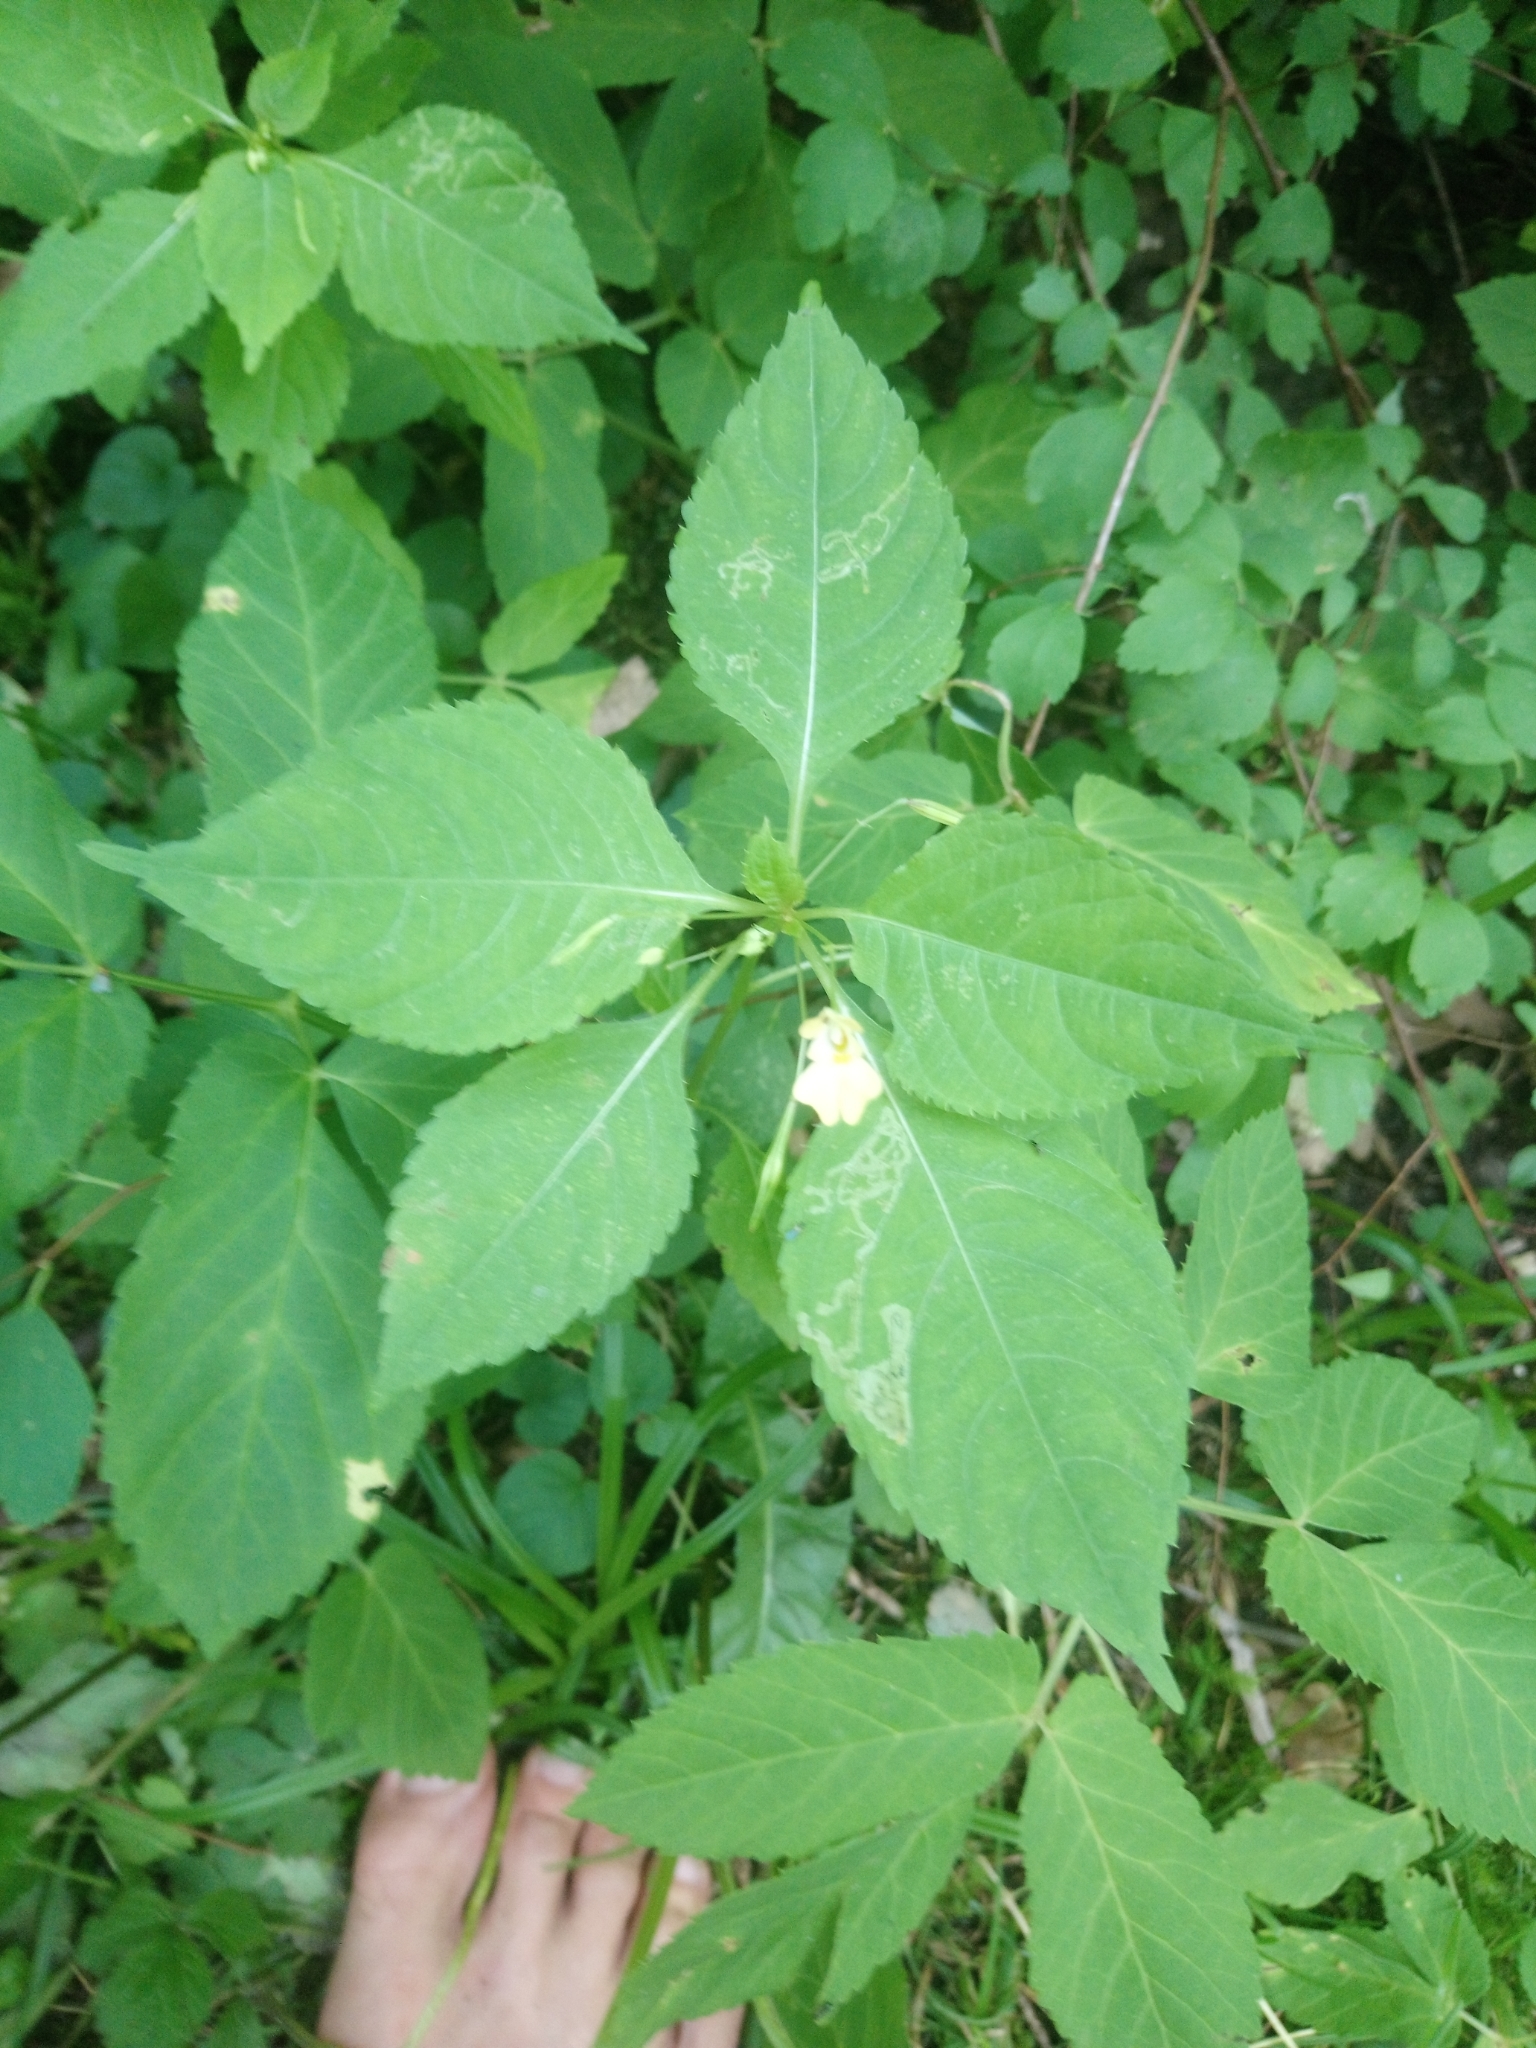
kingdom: Plantae
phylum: Tracheophyta
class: Magnoliopsida
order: Ericales
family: Balsaminaceae
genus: Impatiens
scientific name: Impatiens parviflora
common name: Small balsam
